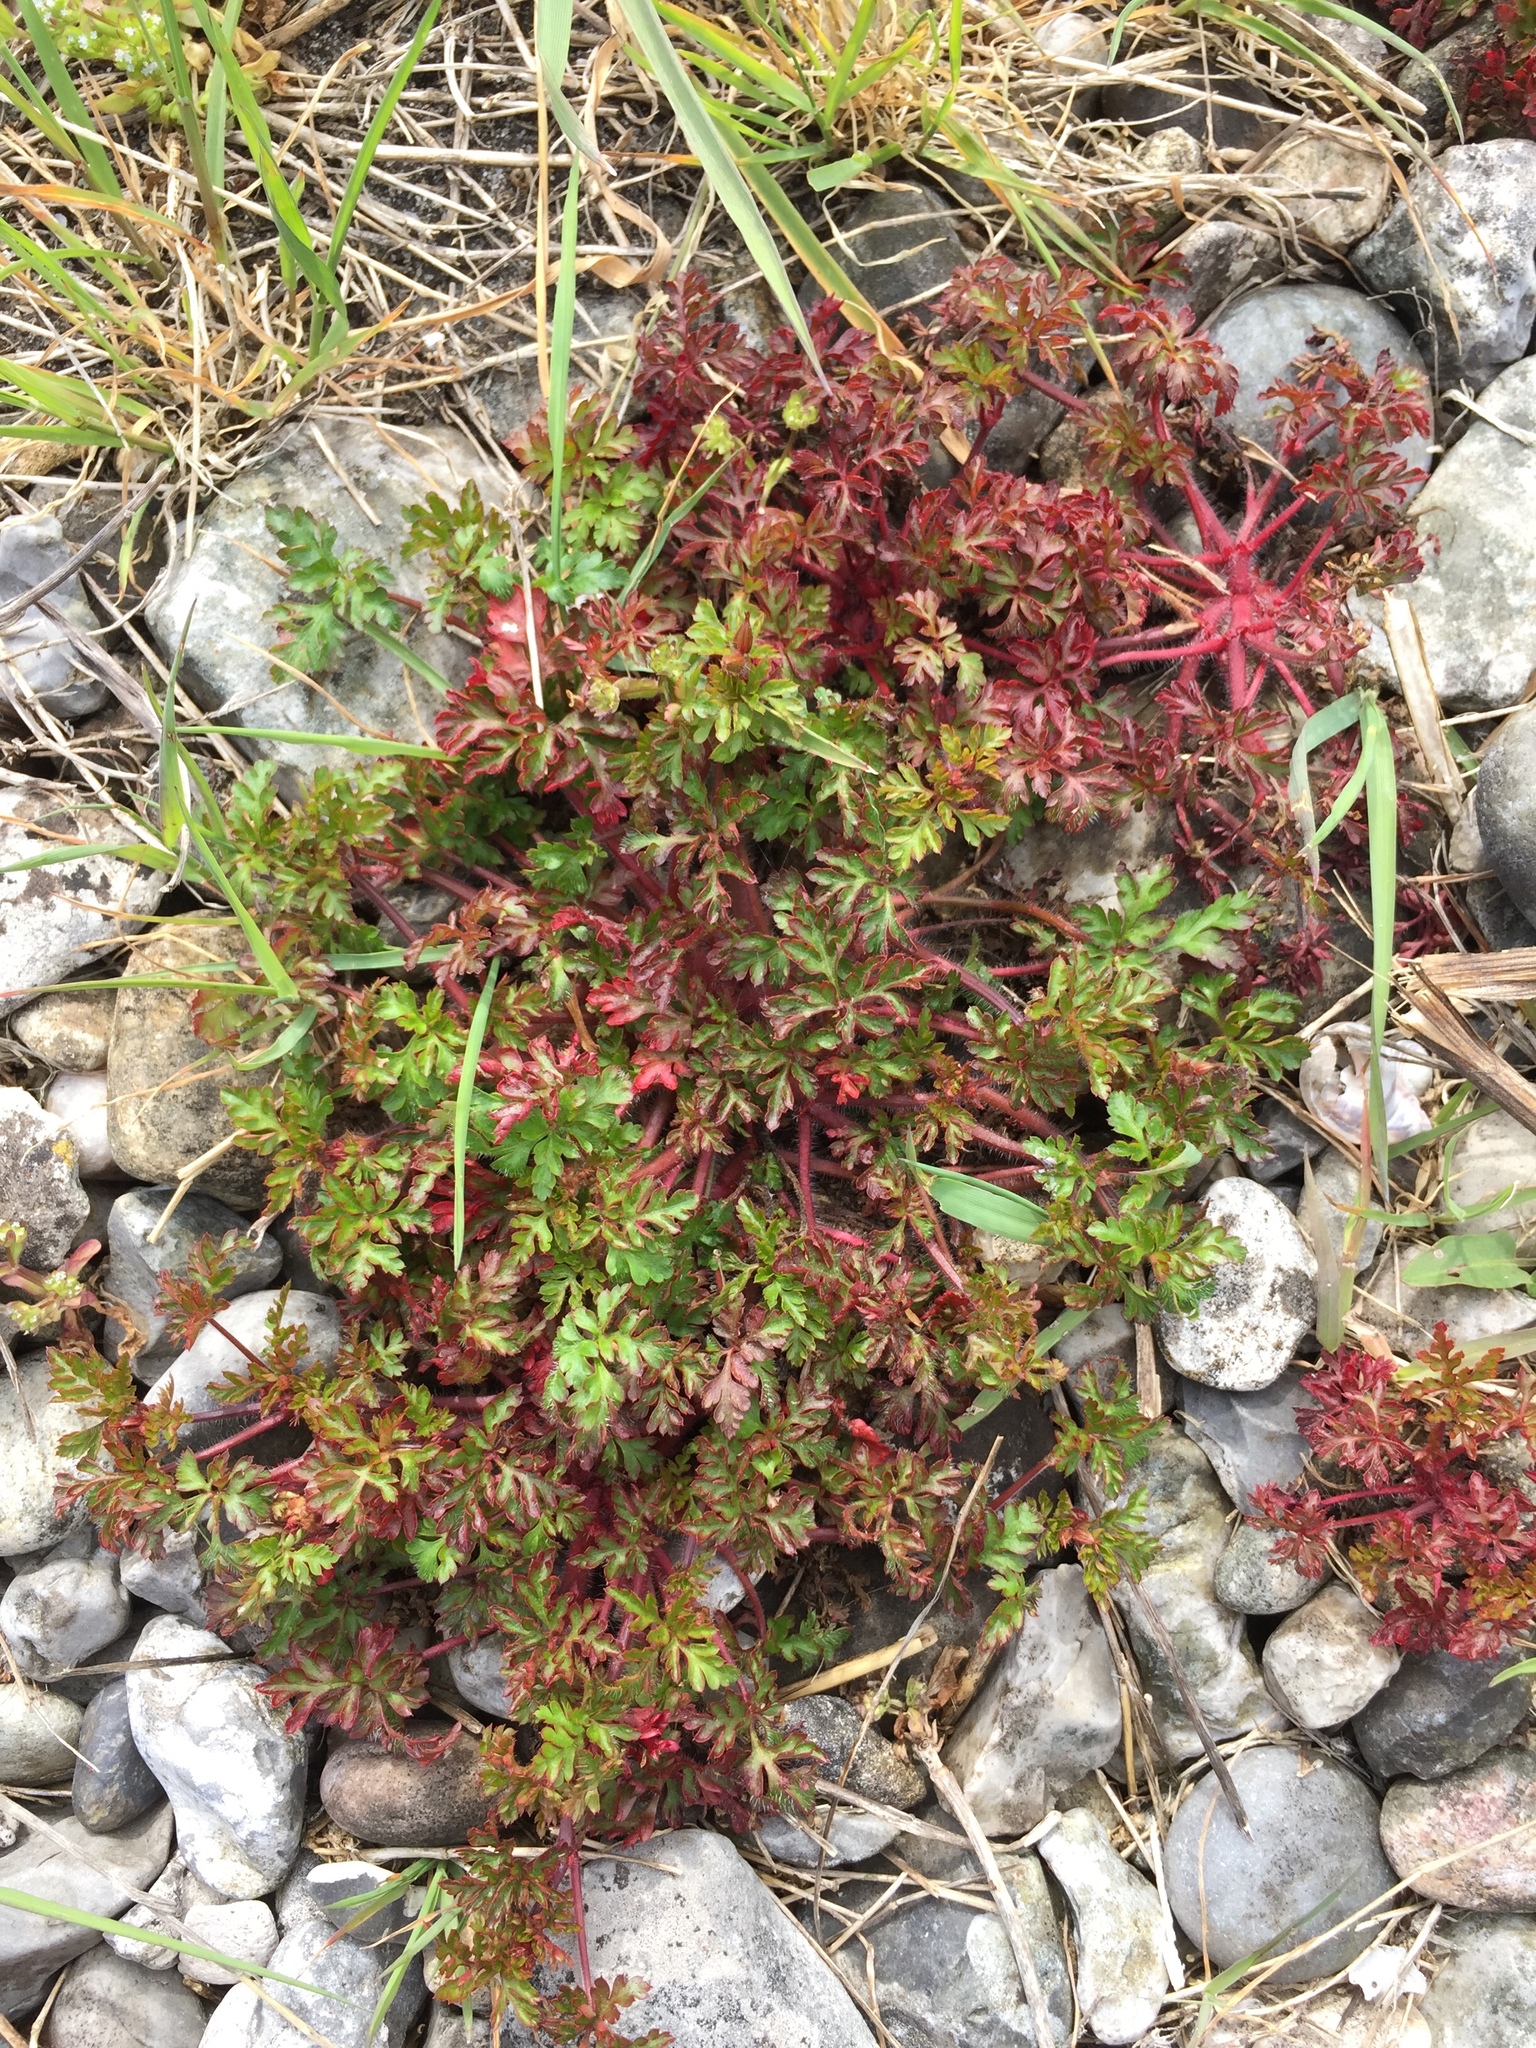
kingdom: Plantae
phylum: Tracheophyta
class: Magnoliopsida
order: Geraniales
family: Geraniaceae
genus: Geranium
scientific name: Geranium robertianum
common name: Herb-robert
